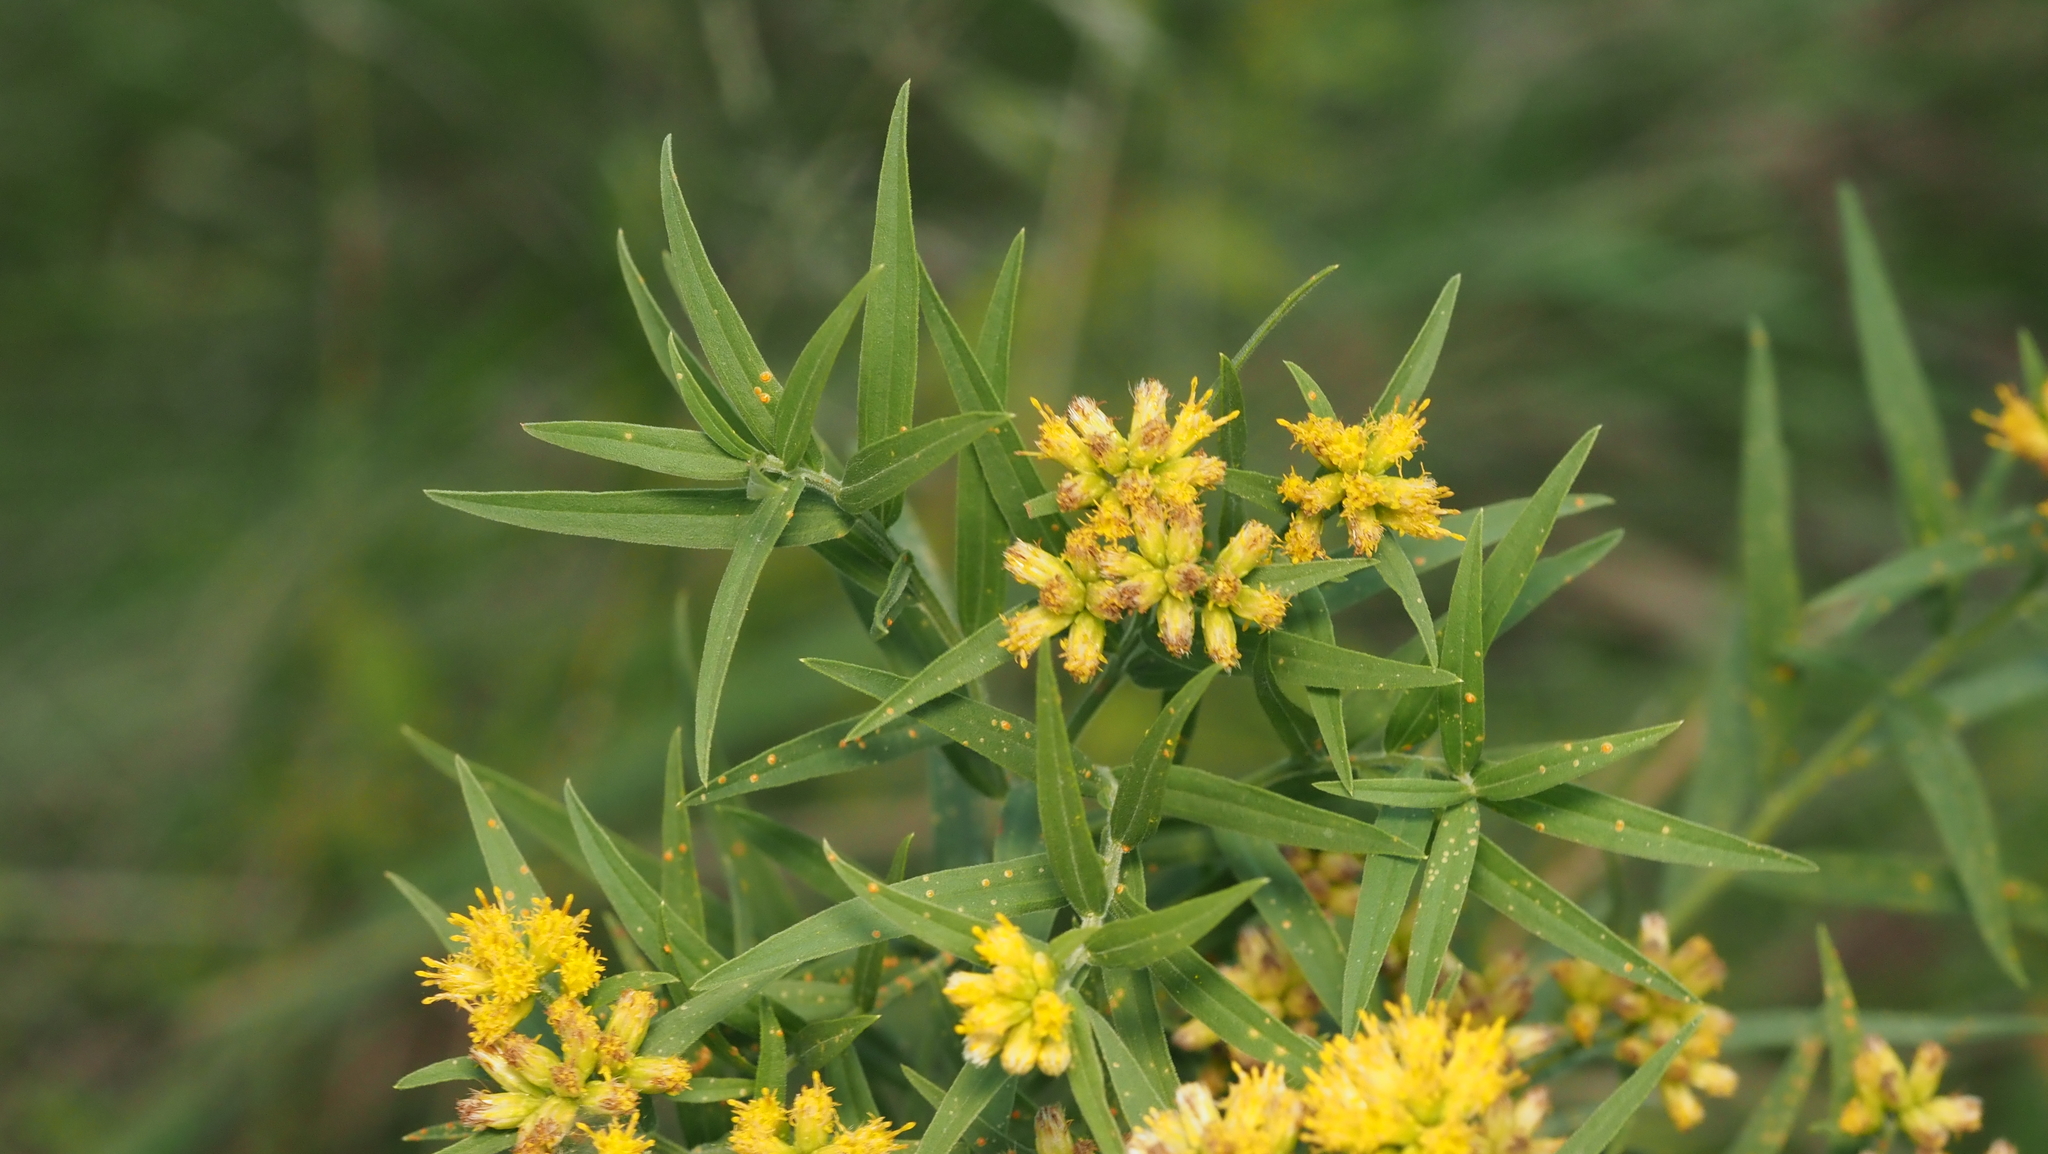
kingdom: Plantae
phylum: Tracheophyta
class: Magnoliopsida
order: Asterales
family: Asteraceae
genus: Euthamia
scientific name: Euthamia graminifolia
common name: Common goldentop
